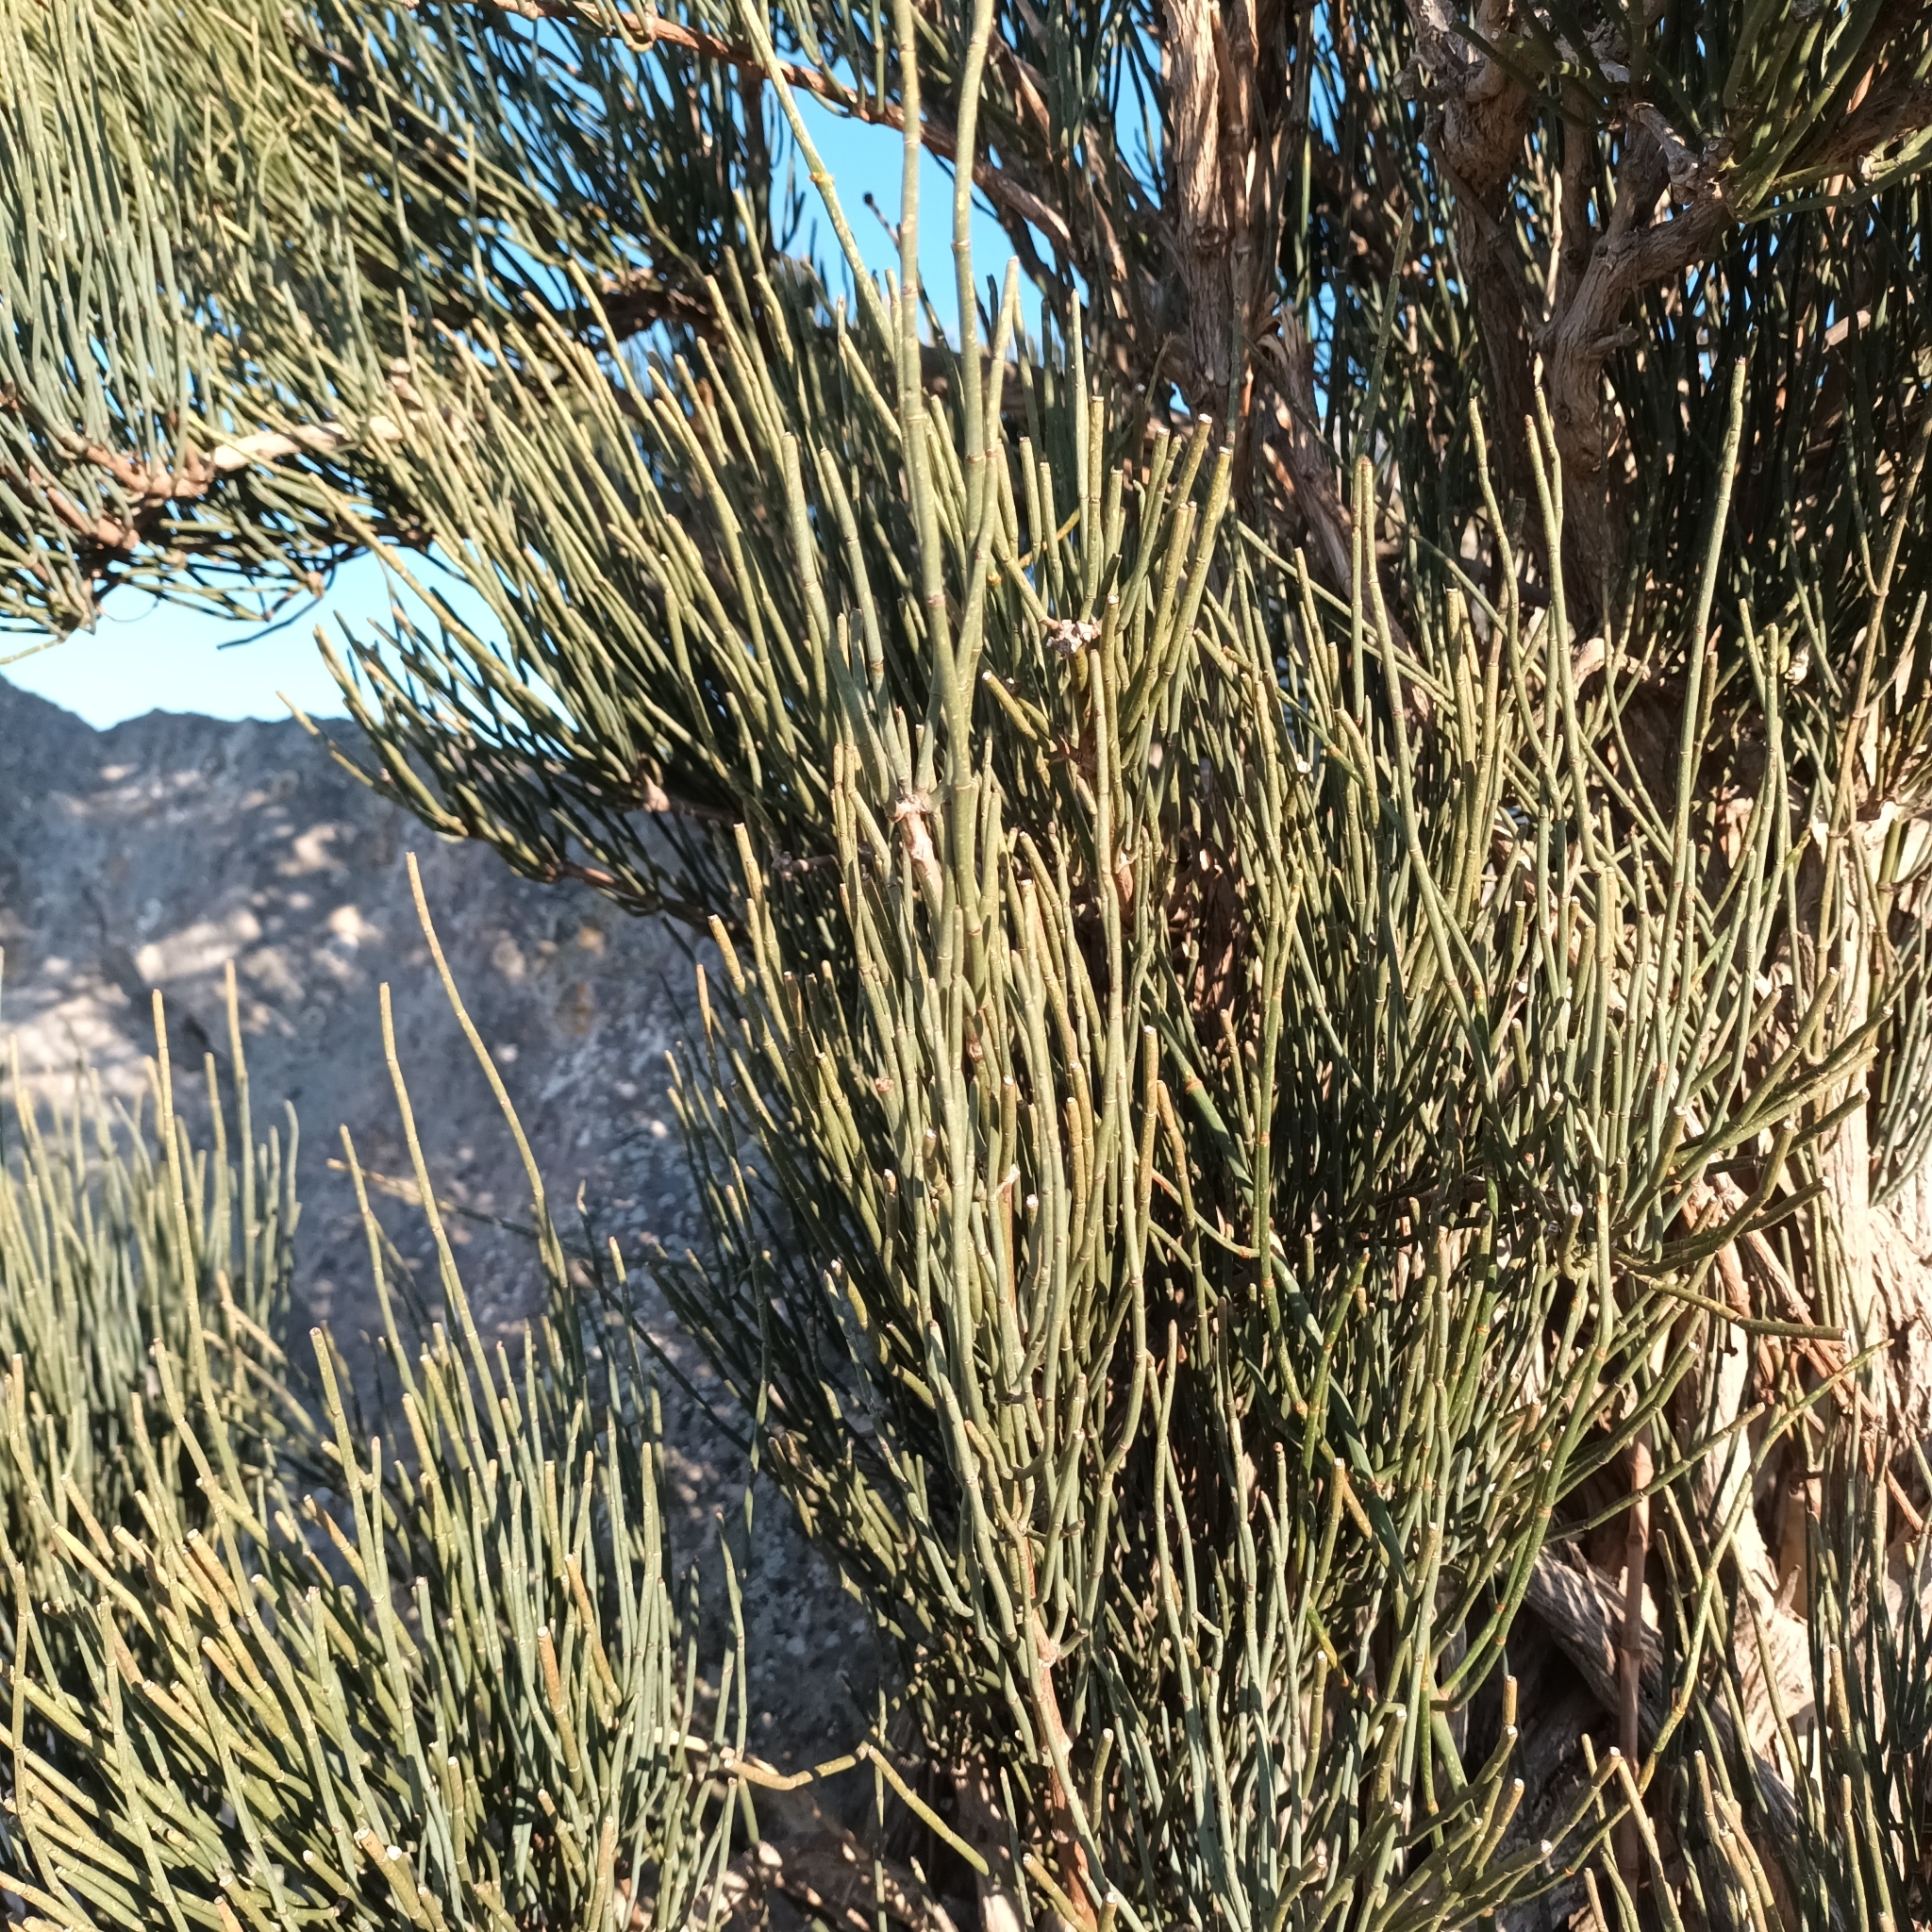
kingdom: Plantae
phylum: Tracheophyta
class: Gnetopsida
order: Ephedrales
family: Ephedraceae
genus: Ephedra
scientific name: Ephedra fragilis
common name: Joint pine
